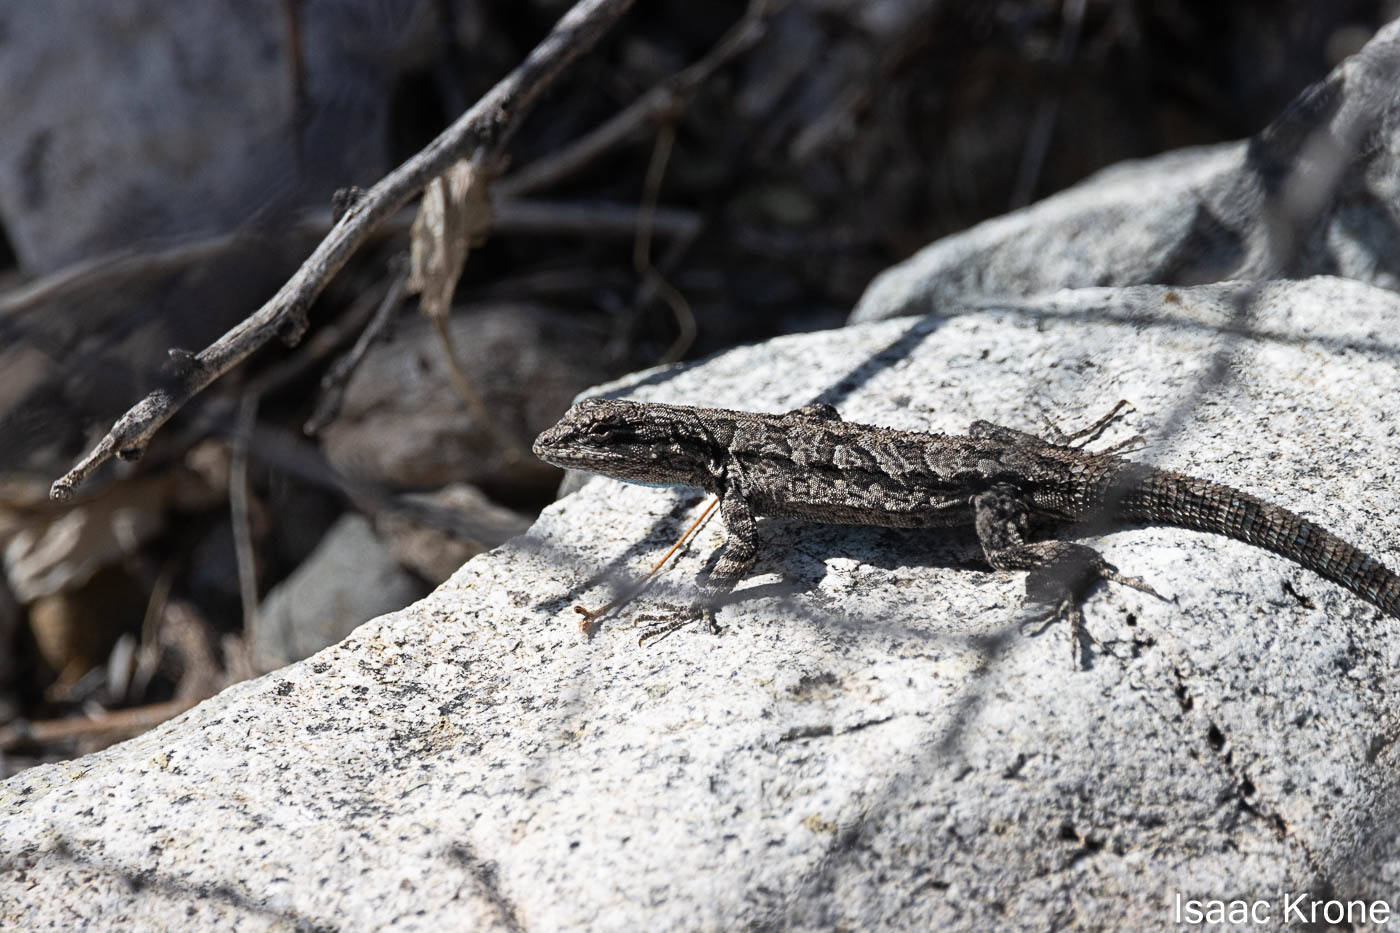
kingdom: Animalia
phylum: Chordata
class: Squamata
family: Phrynosomatidae
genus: Urosaurus
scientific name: Urosaurus ornatus
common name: Ornate tree lizard
